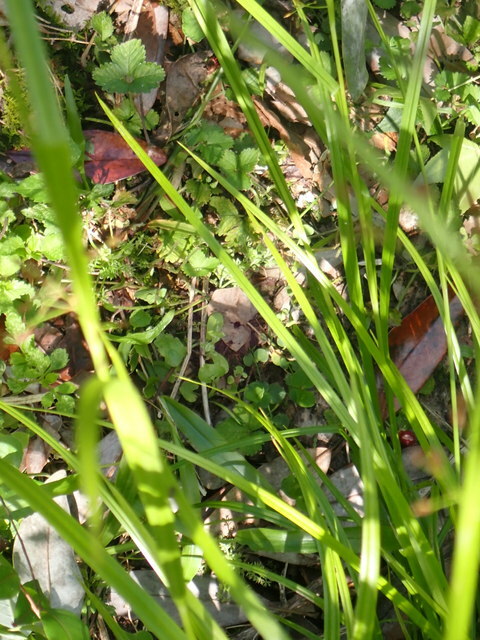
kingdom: Plantae
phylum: Tracheophyta
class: Liliopsida
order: Poales
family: Cyperaceae
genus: Rhynchospora
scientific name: Rhynchospora mixta
